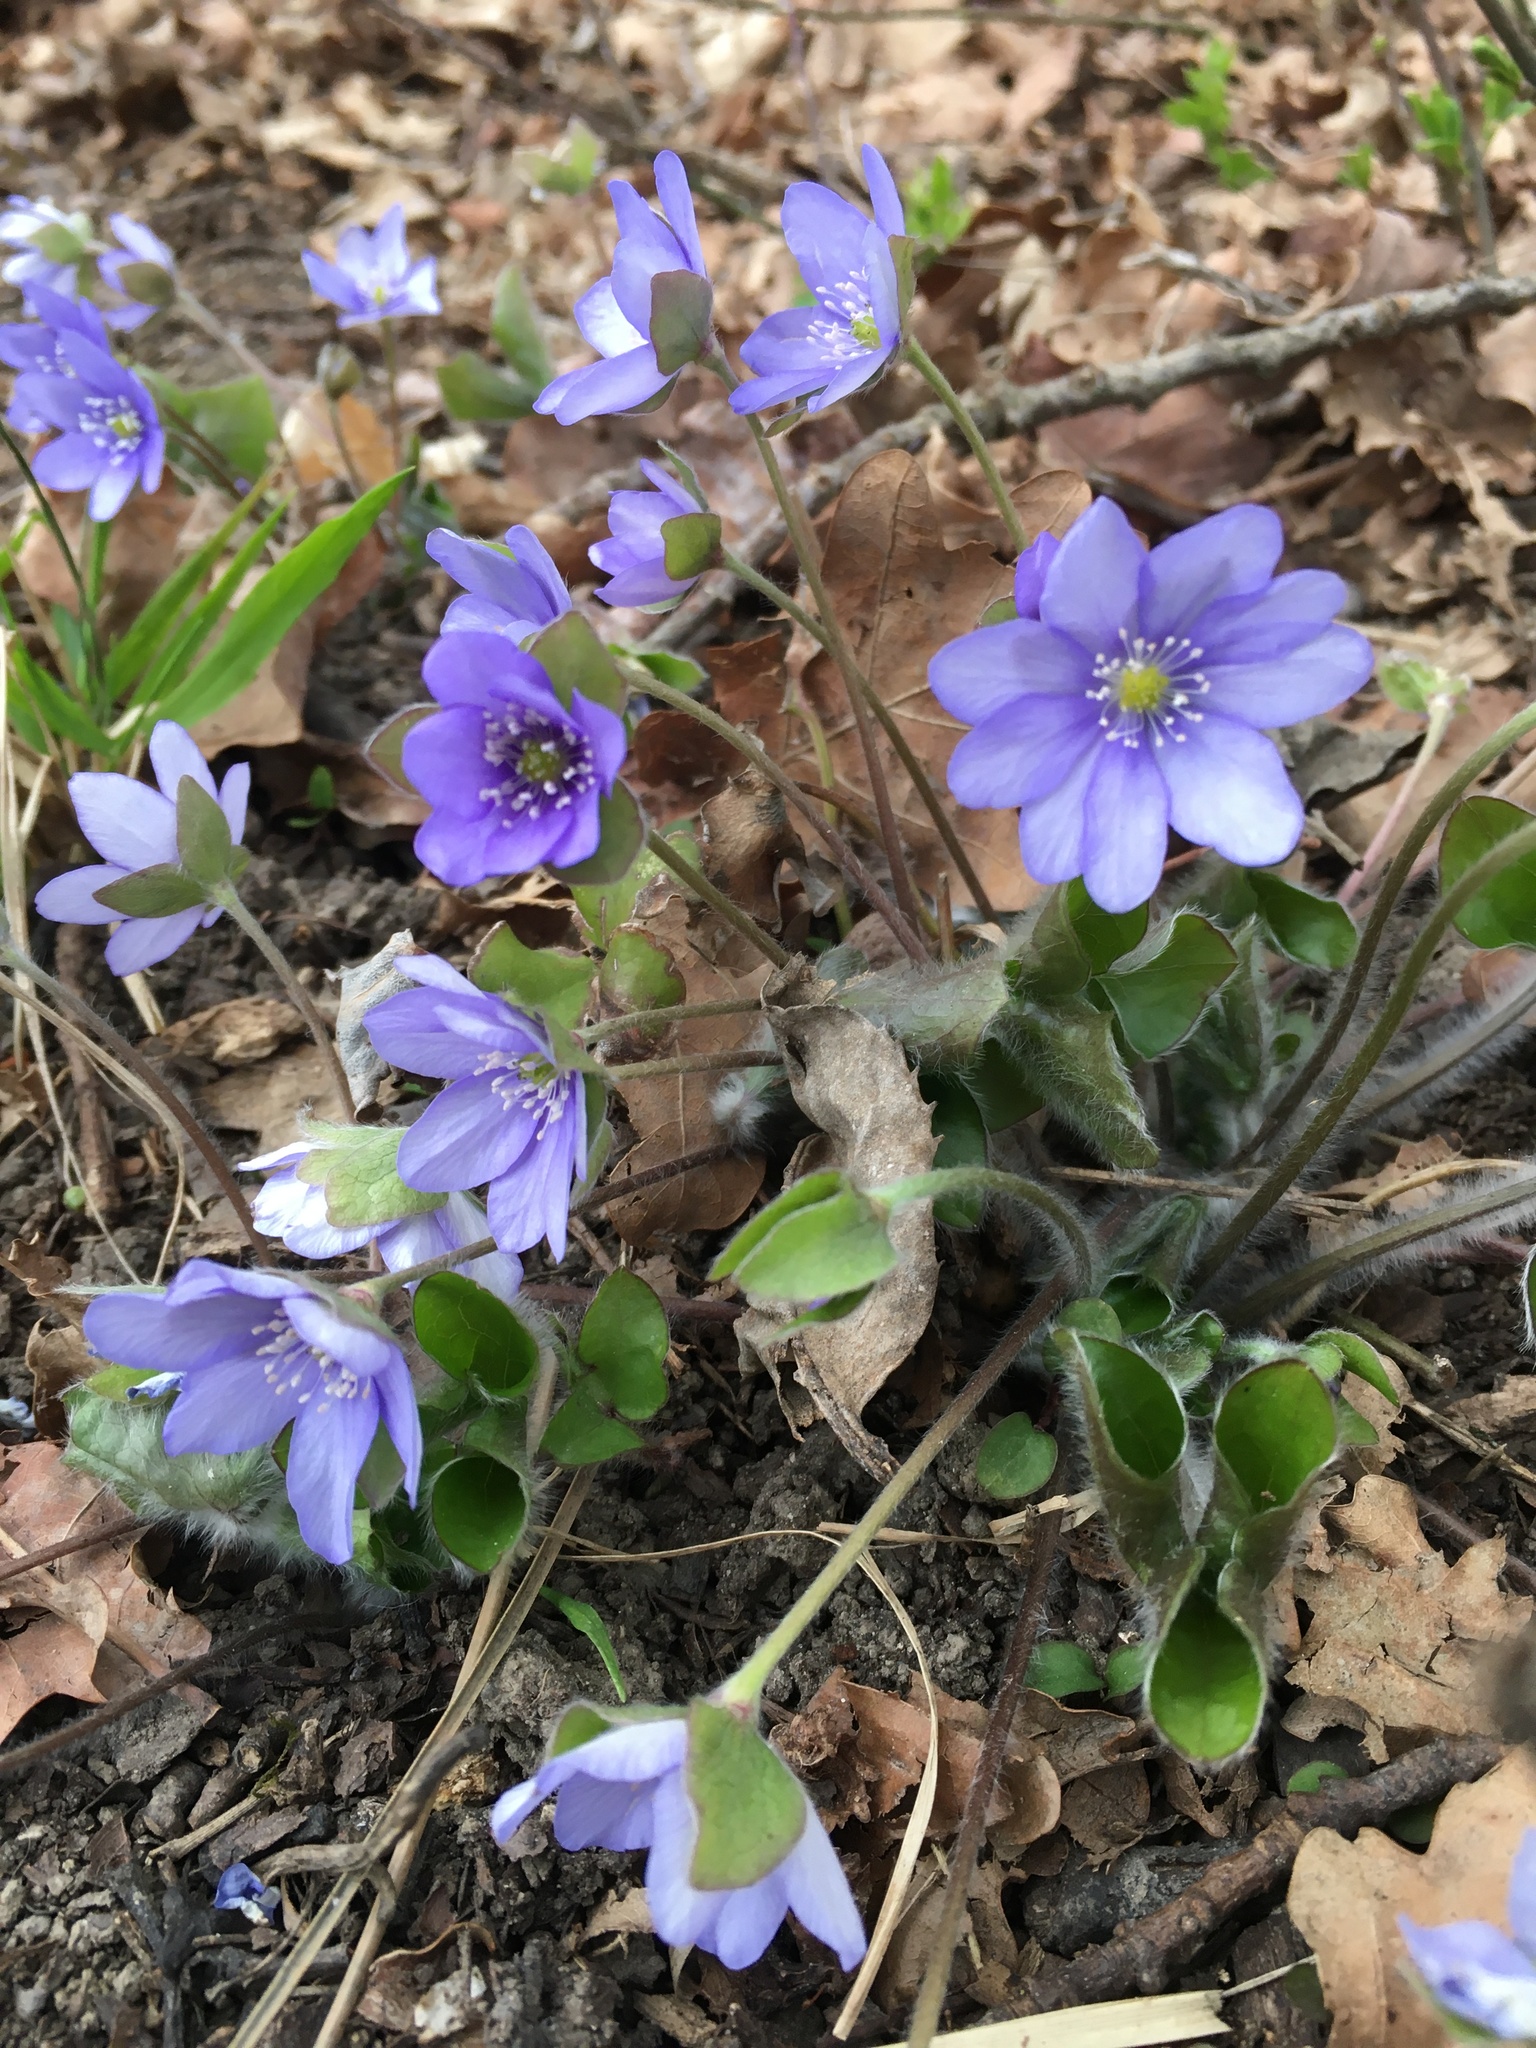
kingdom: Plantae
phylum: Tracheophyta
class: Magnoliopsida
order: Ranunculales
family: Ranunculaceae
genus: Hepatica
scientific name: Hepatica nobilis
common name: Liverleaf
